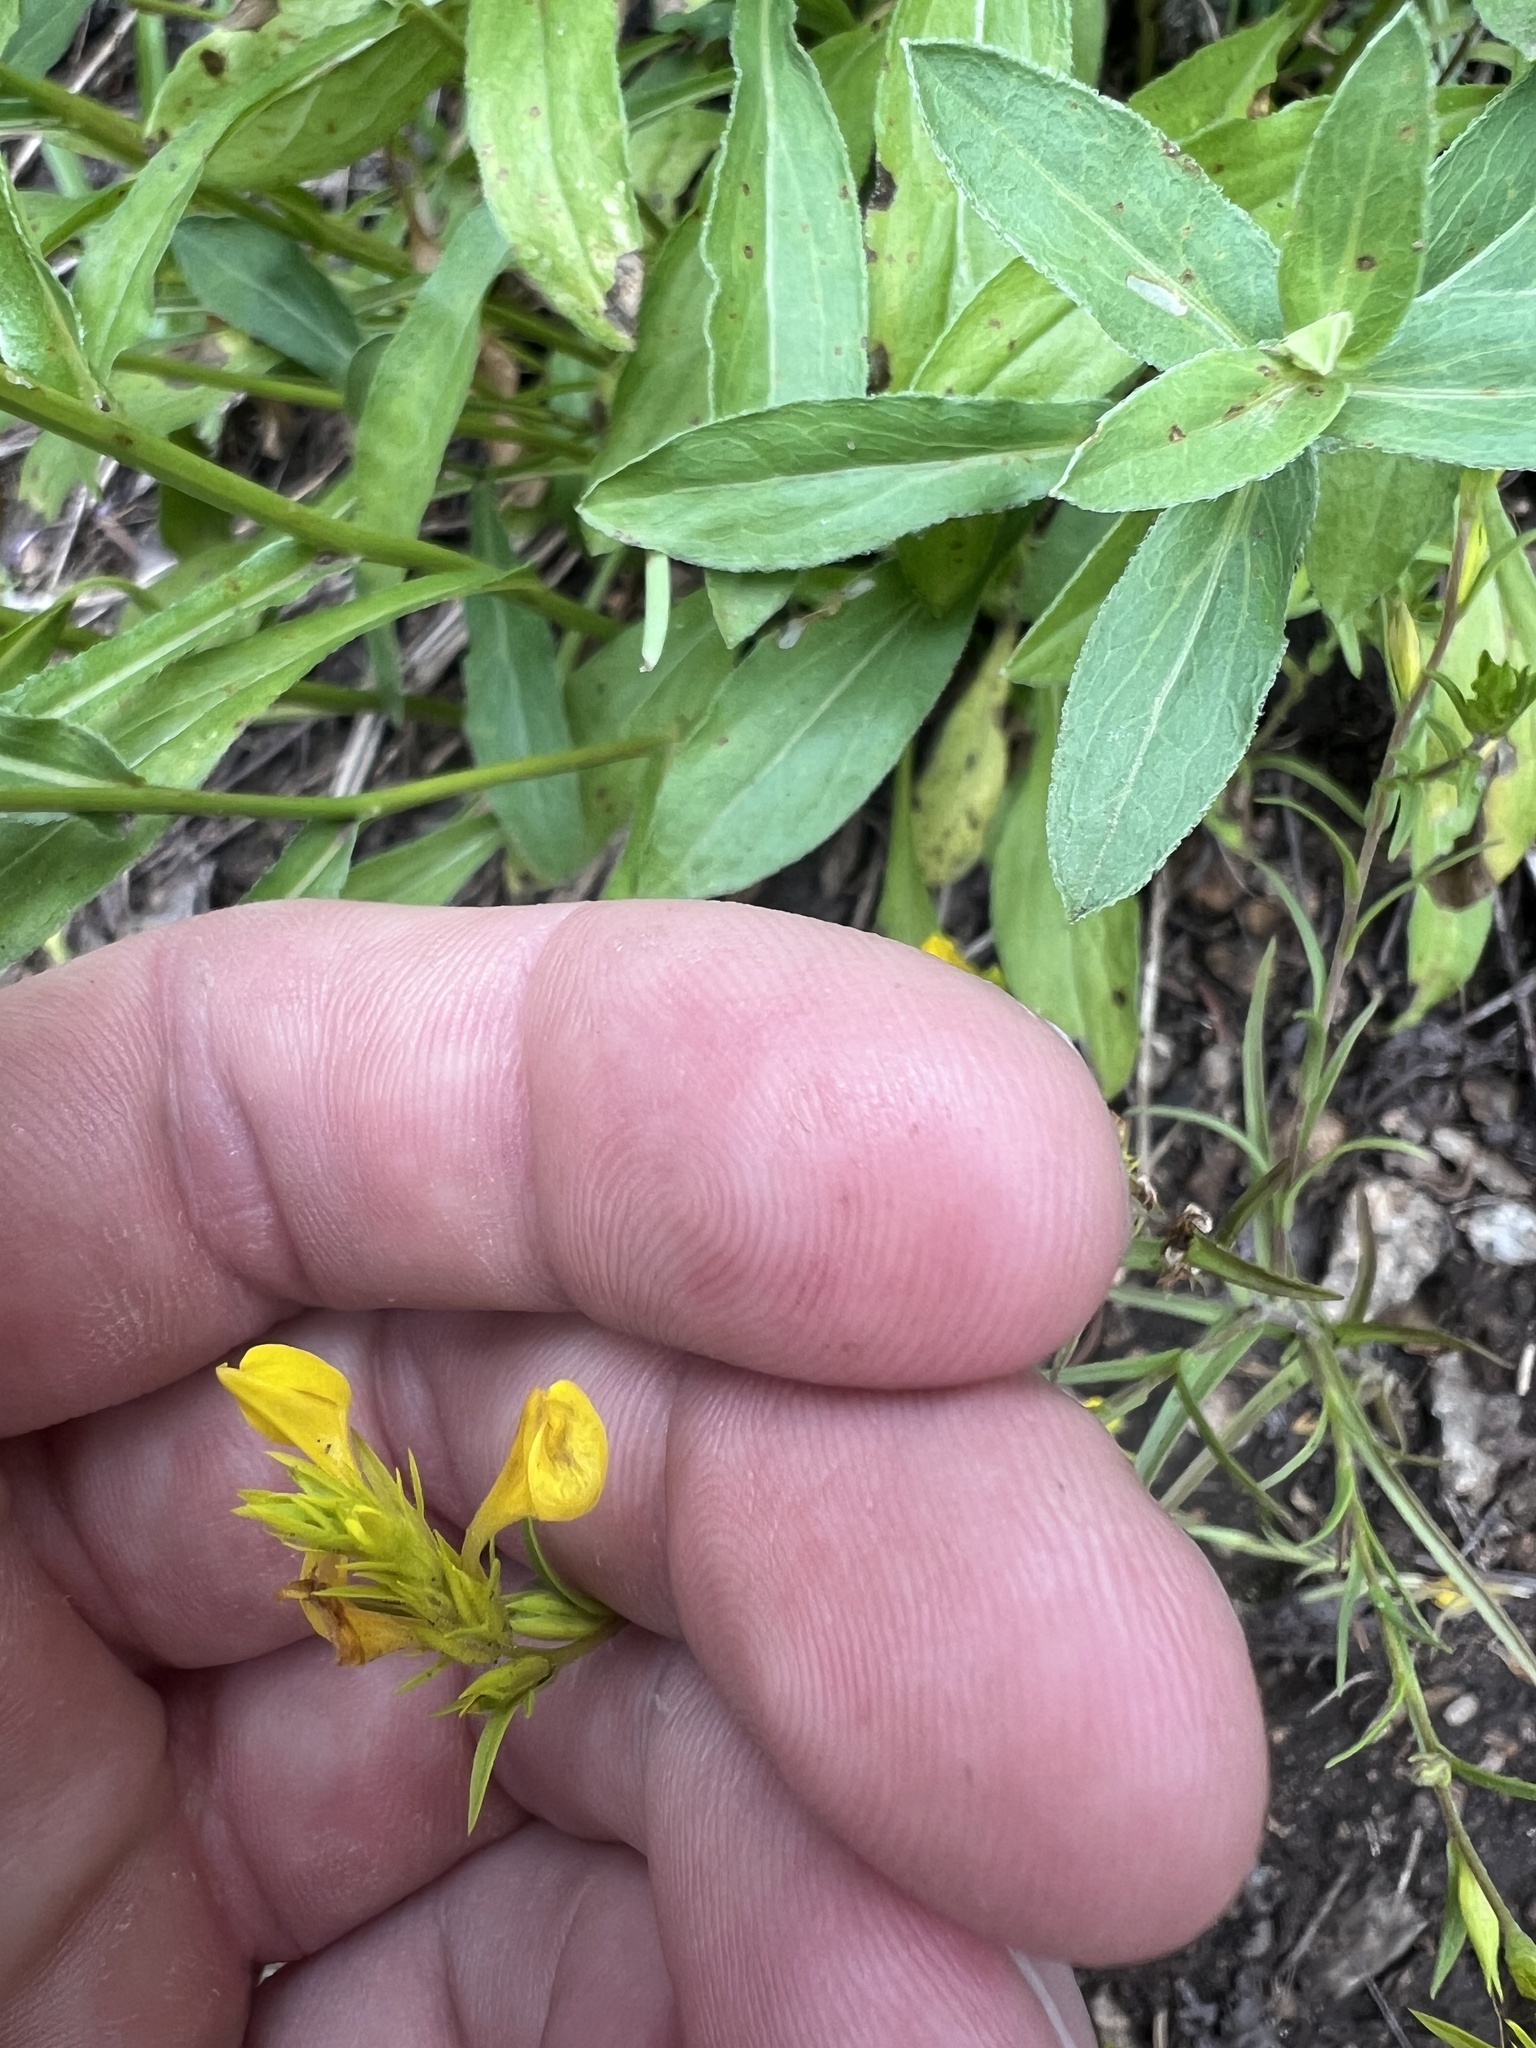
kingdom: Plantae
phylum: Tracheophyta
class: Magnoliopsida
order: Lamiales
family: Orobanchaceae
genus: Orthocarpus
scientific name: Orthocarpus tolmiei
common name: Tolmie's owl-clover
